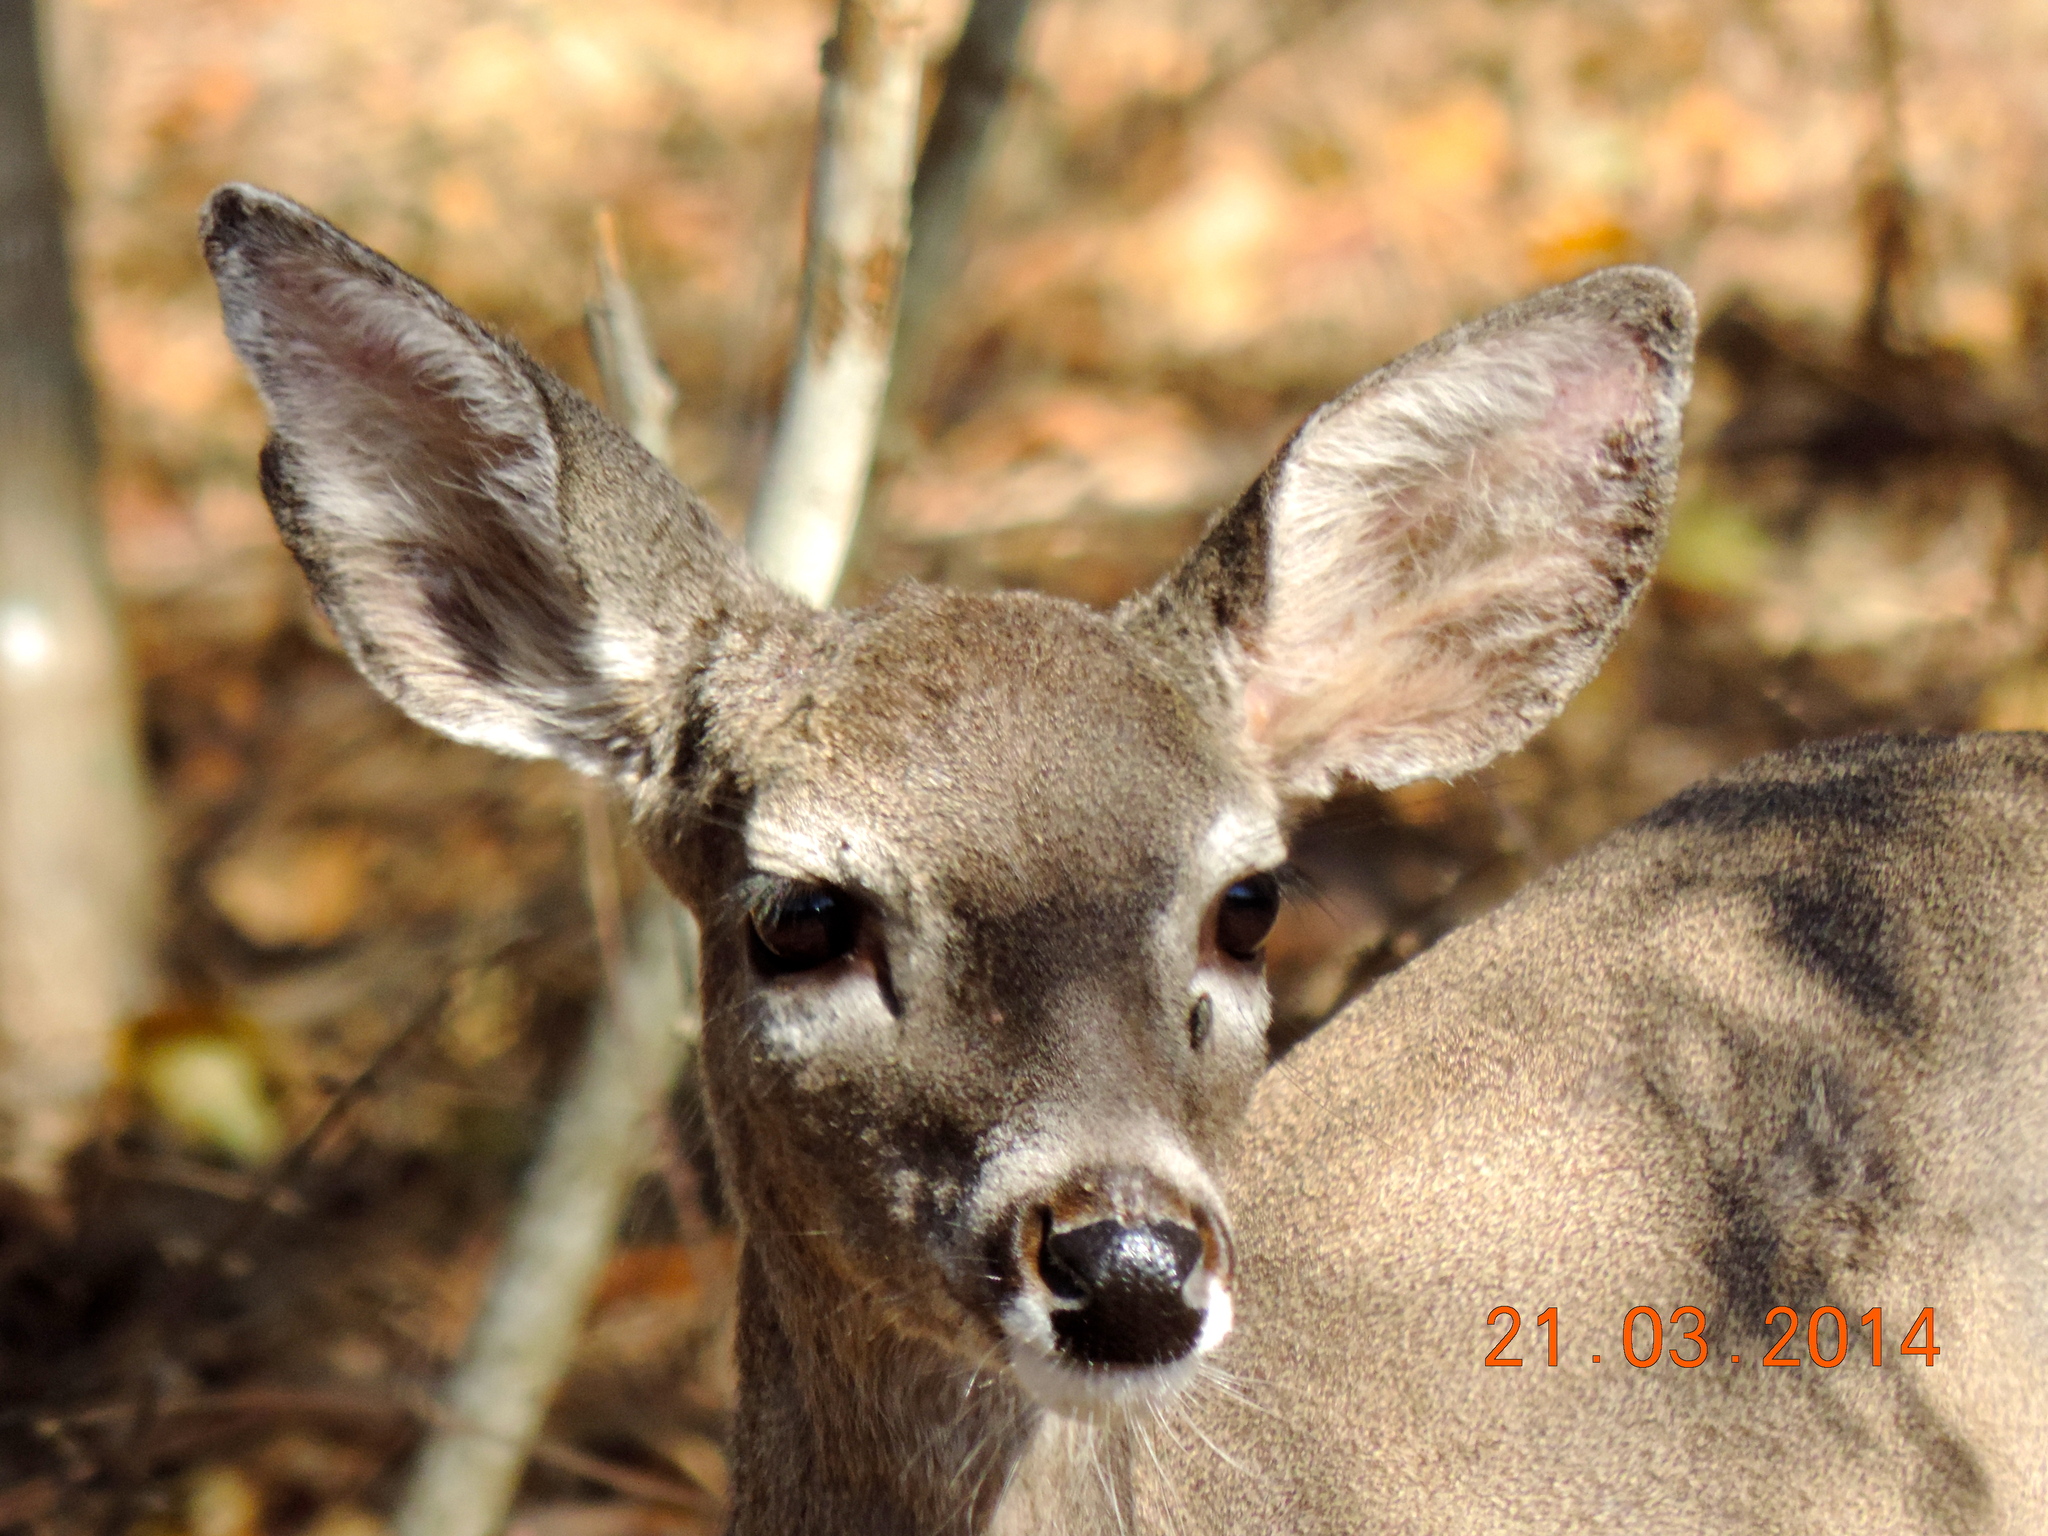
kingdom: Animalia
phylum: Chordata
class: Mammalia
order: Artiodactyla
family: Cervidae
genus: Odocoileus
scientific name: Odocoileus virginianus
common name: White-tailed deer
